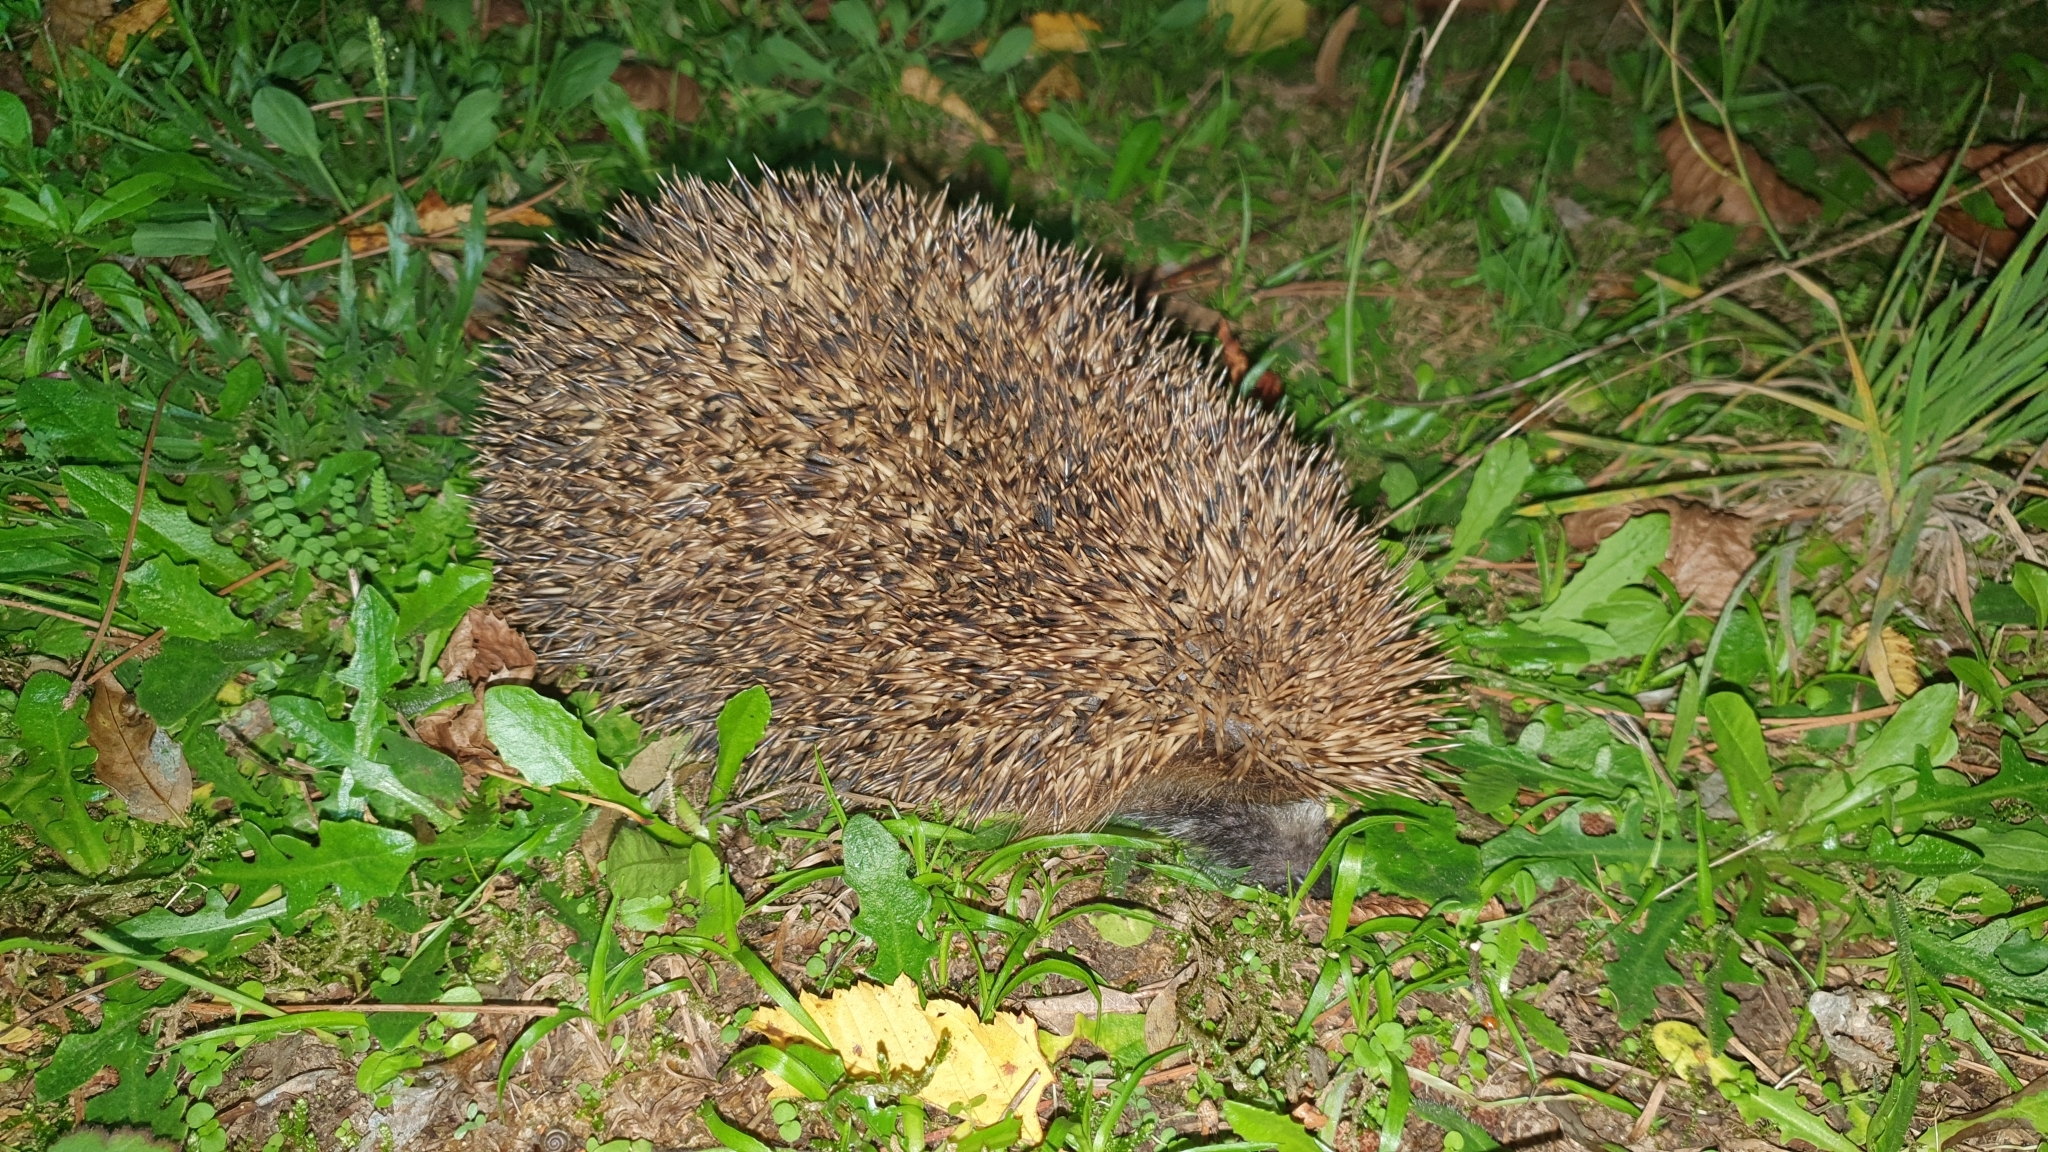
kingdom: Animalia
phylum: Chordata
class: Mammalia
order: Erinaceomorpha
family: Erinaceidae
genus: Erinaceus
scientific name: Erinaceus europaeus
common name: West european hedgehog
